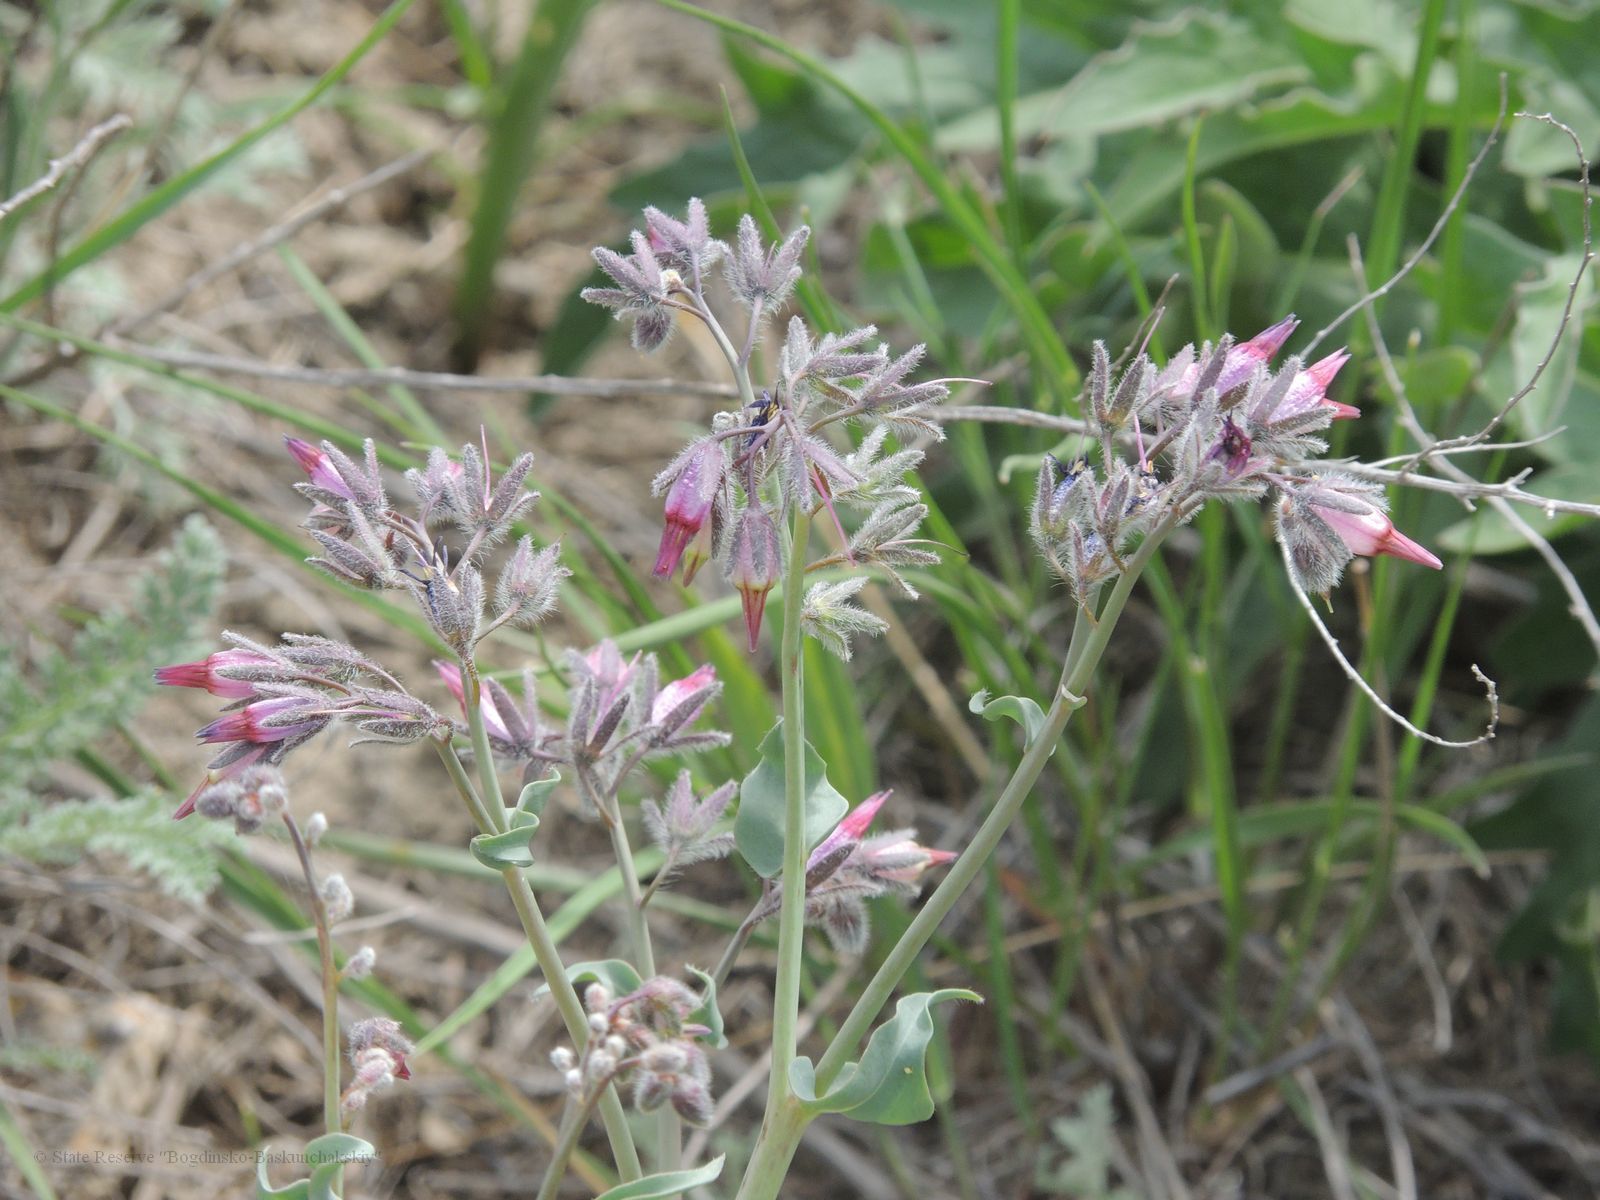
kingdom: Plantae
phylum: Tracheophyta
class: Magnoliopsida
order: Boraginales
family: Boraginaceae
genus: Rindera
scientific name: Rindera tetraspis
